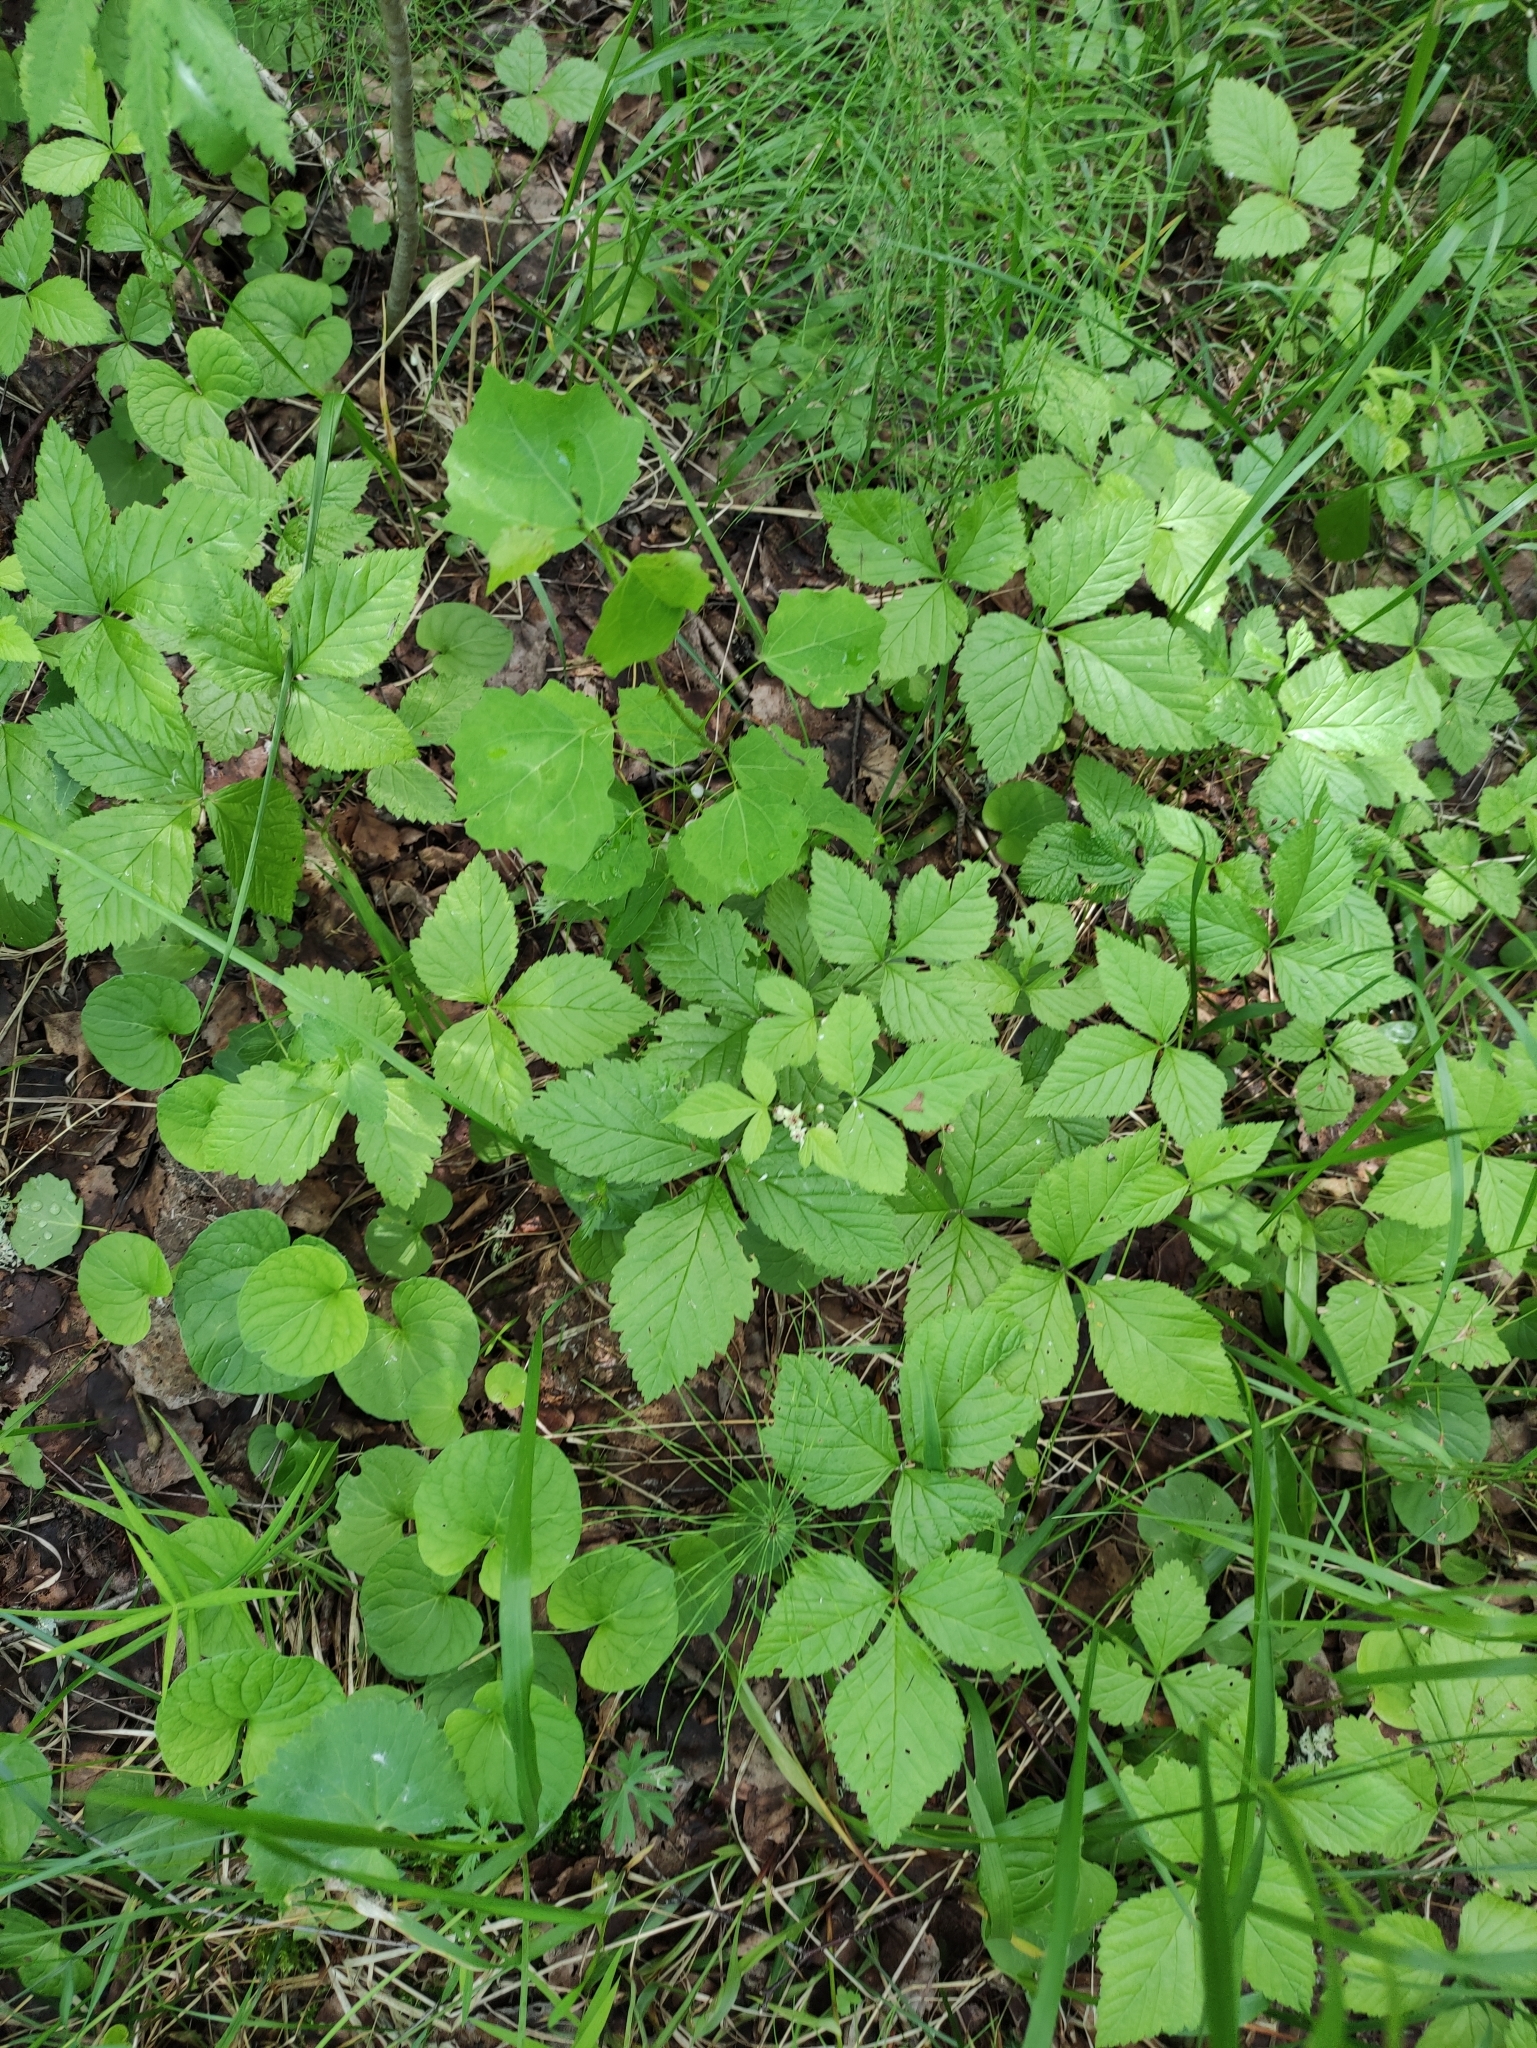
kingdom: Plantae
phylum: Tracheophyta
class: Magnoliopsida
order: Rosales
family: Rosaceae
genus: Rubus
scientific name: Rubus saxatilis
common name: Stone bramble
